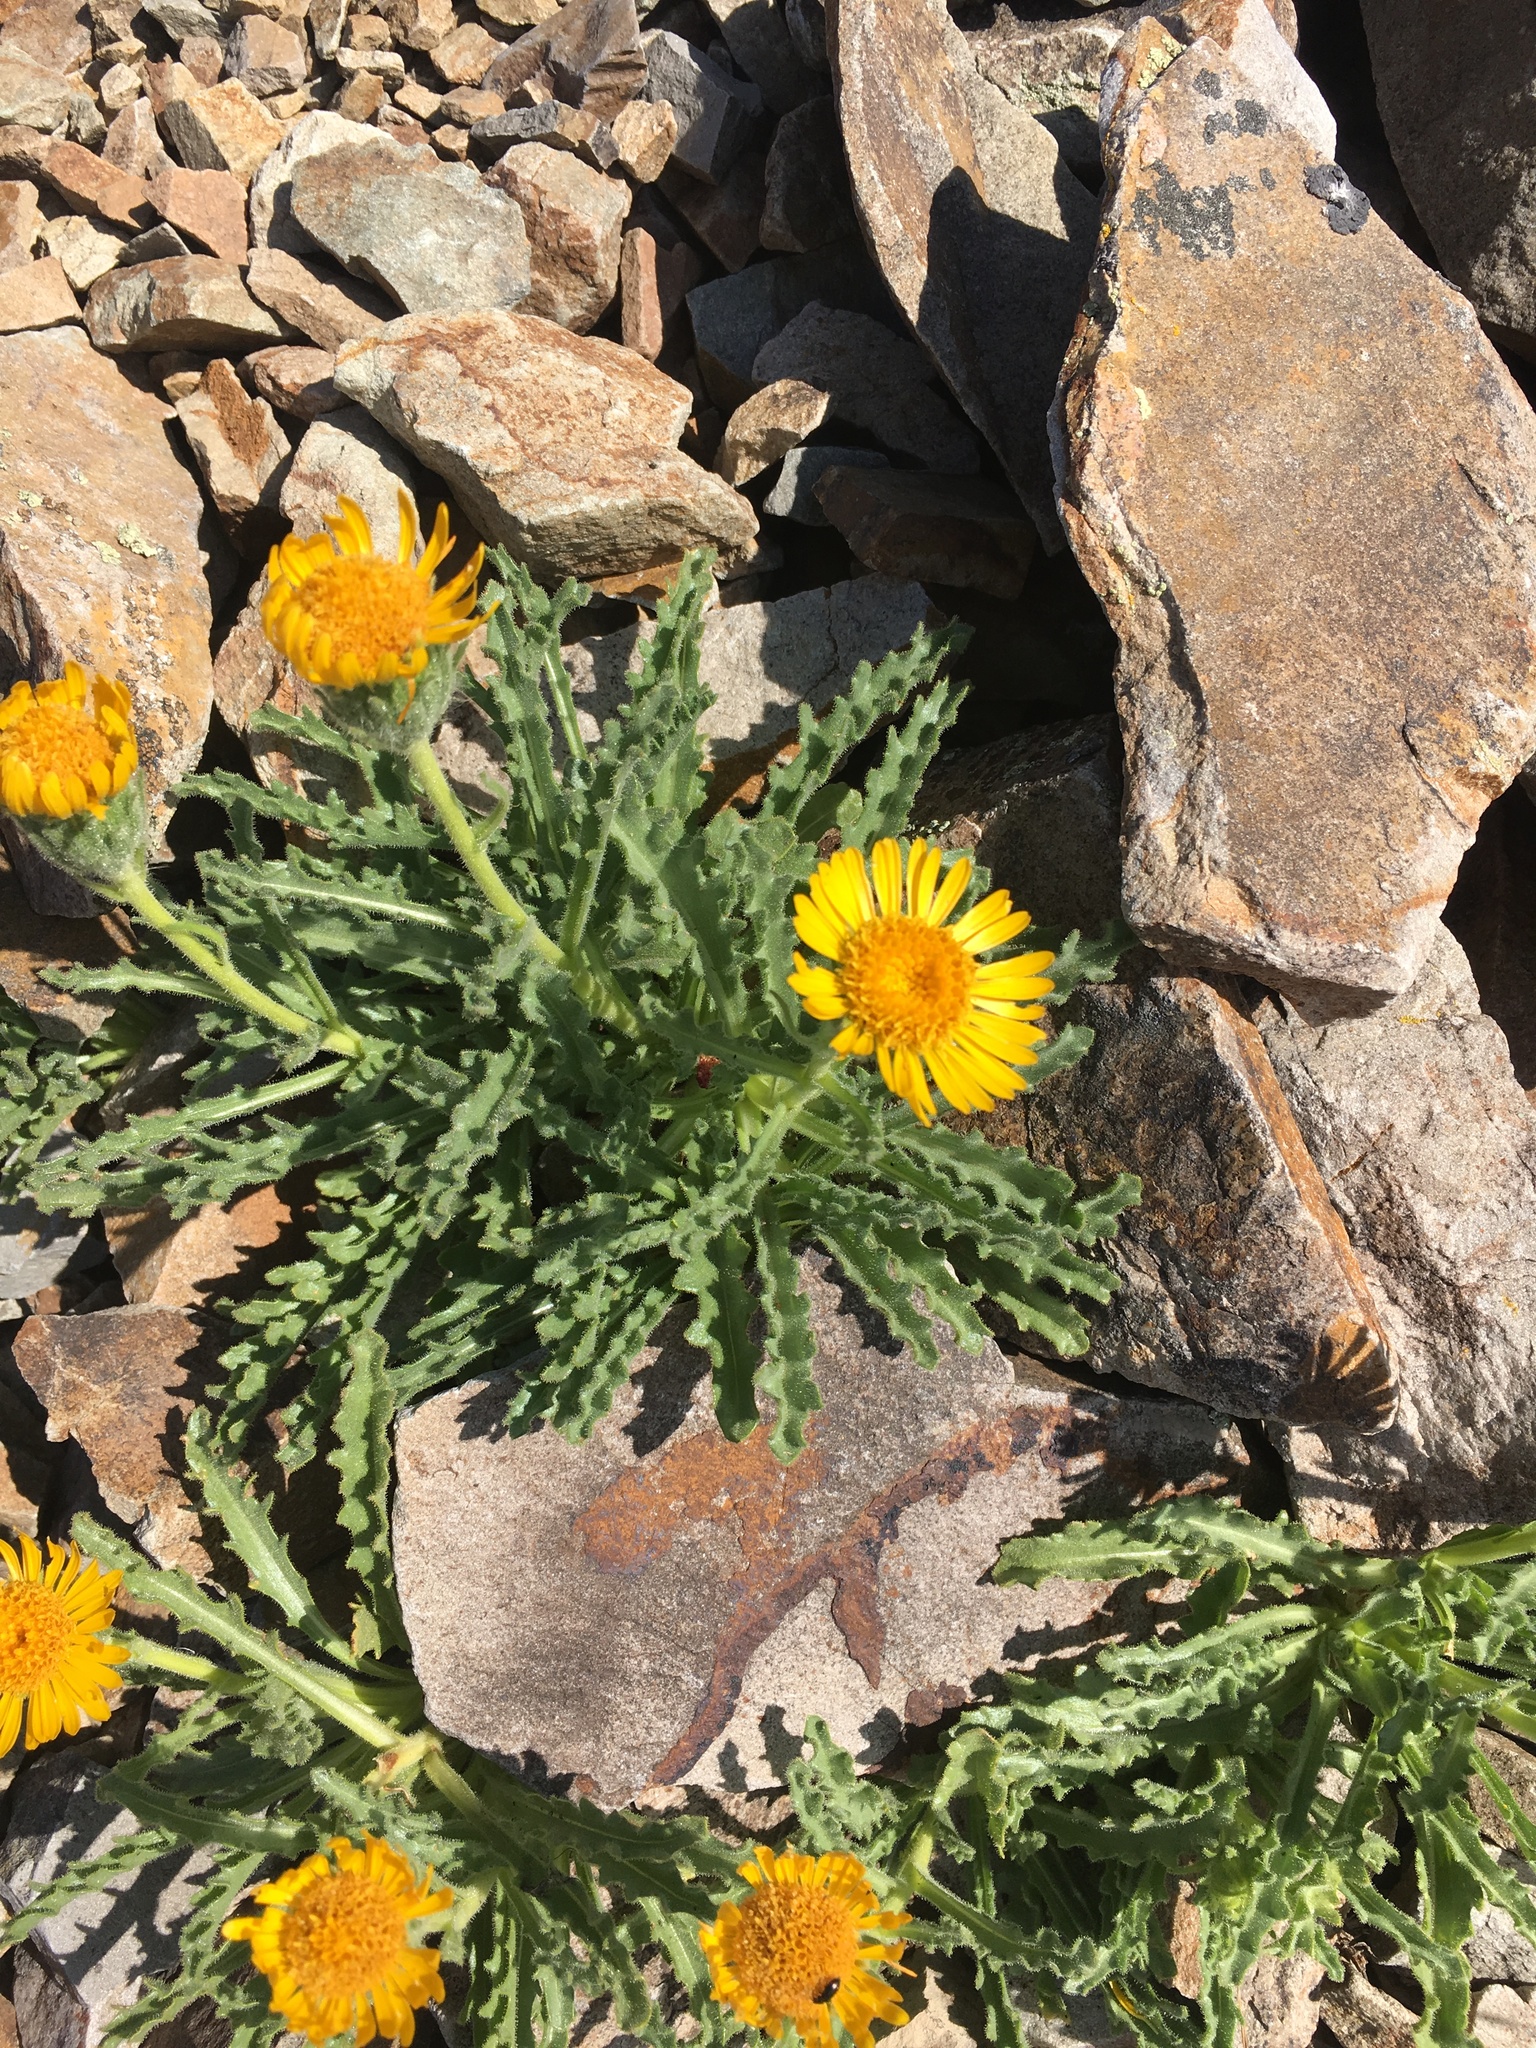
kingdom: Plantae
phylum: Tracheophyta
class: Magnoliopsida
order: Asterales
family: Asteraceae
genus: Hulsea
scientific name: Hulsea algida
